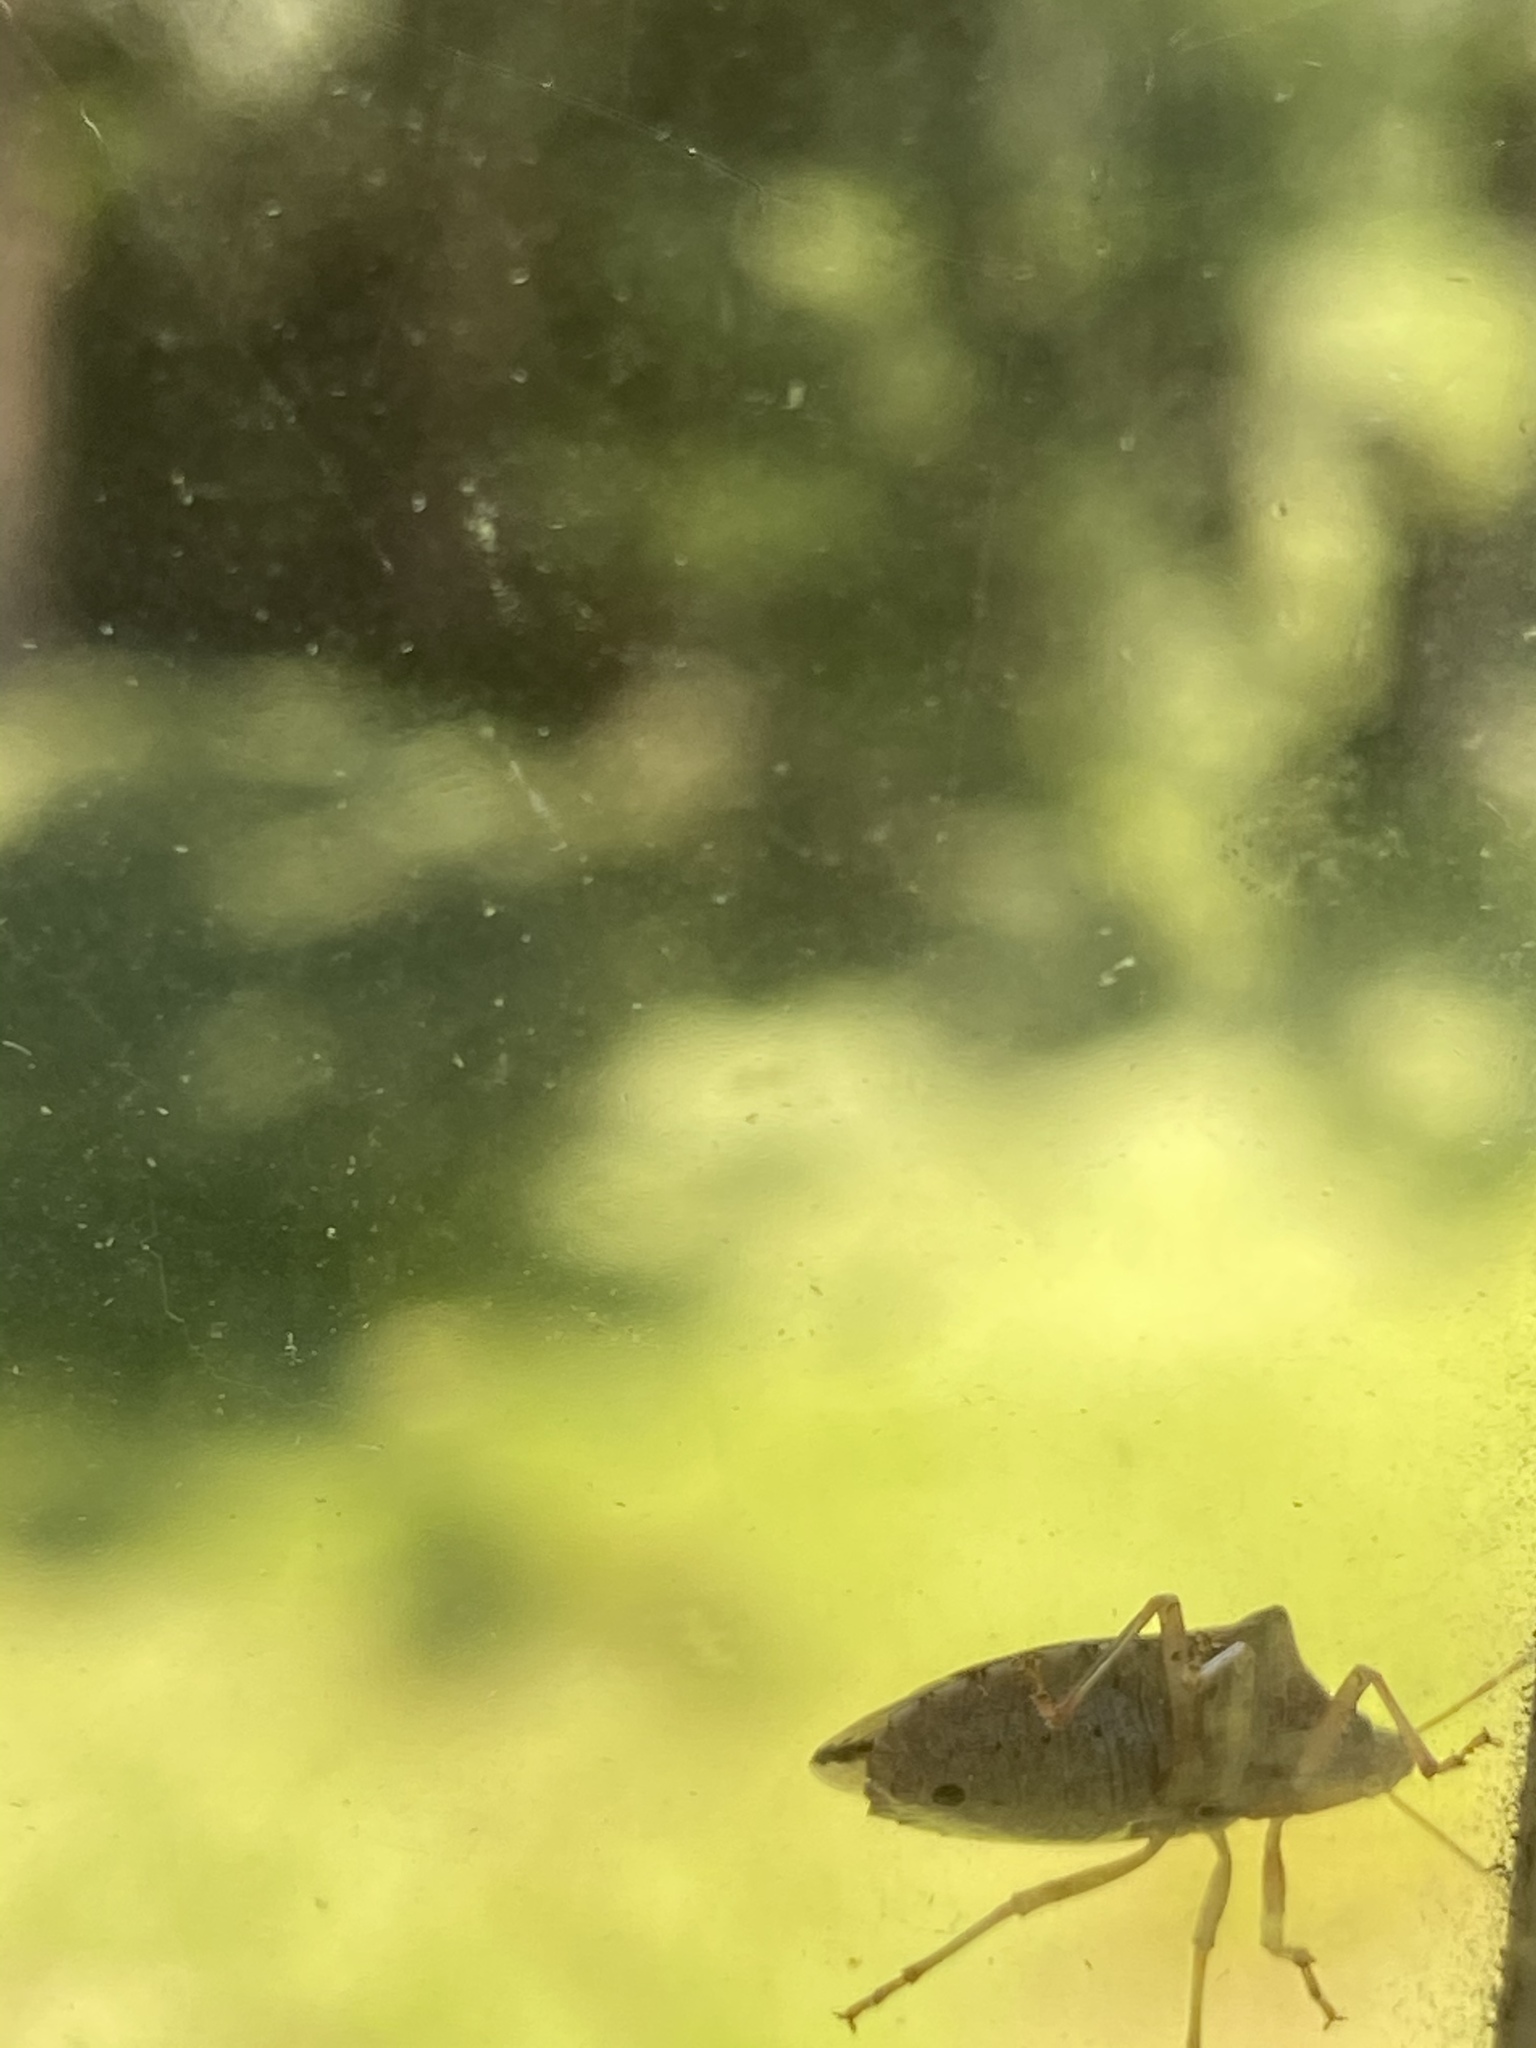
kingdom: Animalia
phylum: Arthropoda
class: Insecta
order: Hemiptera
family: Pentatomidae
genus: Podisus
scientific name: Podisus maculiventris
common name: Spined soldier bug
